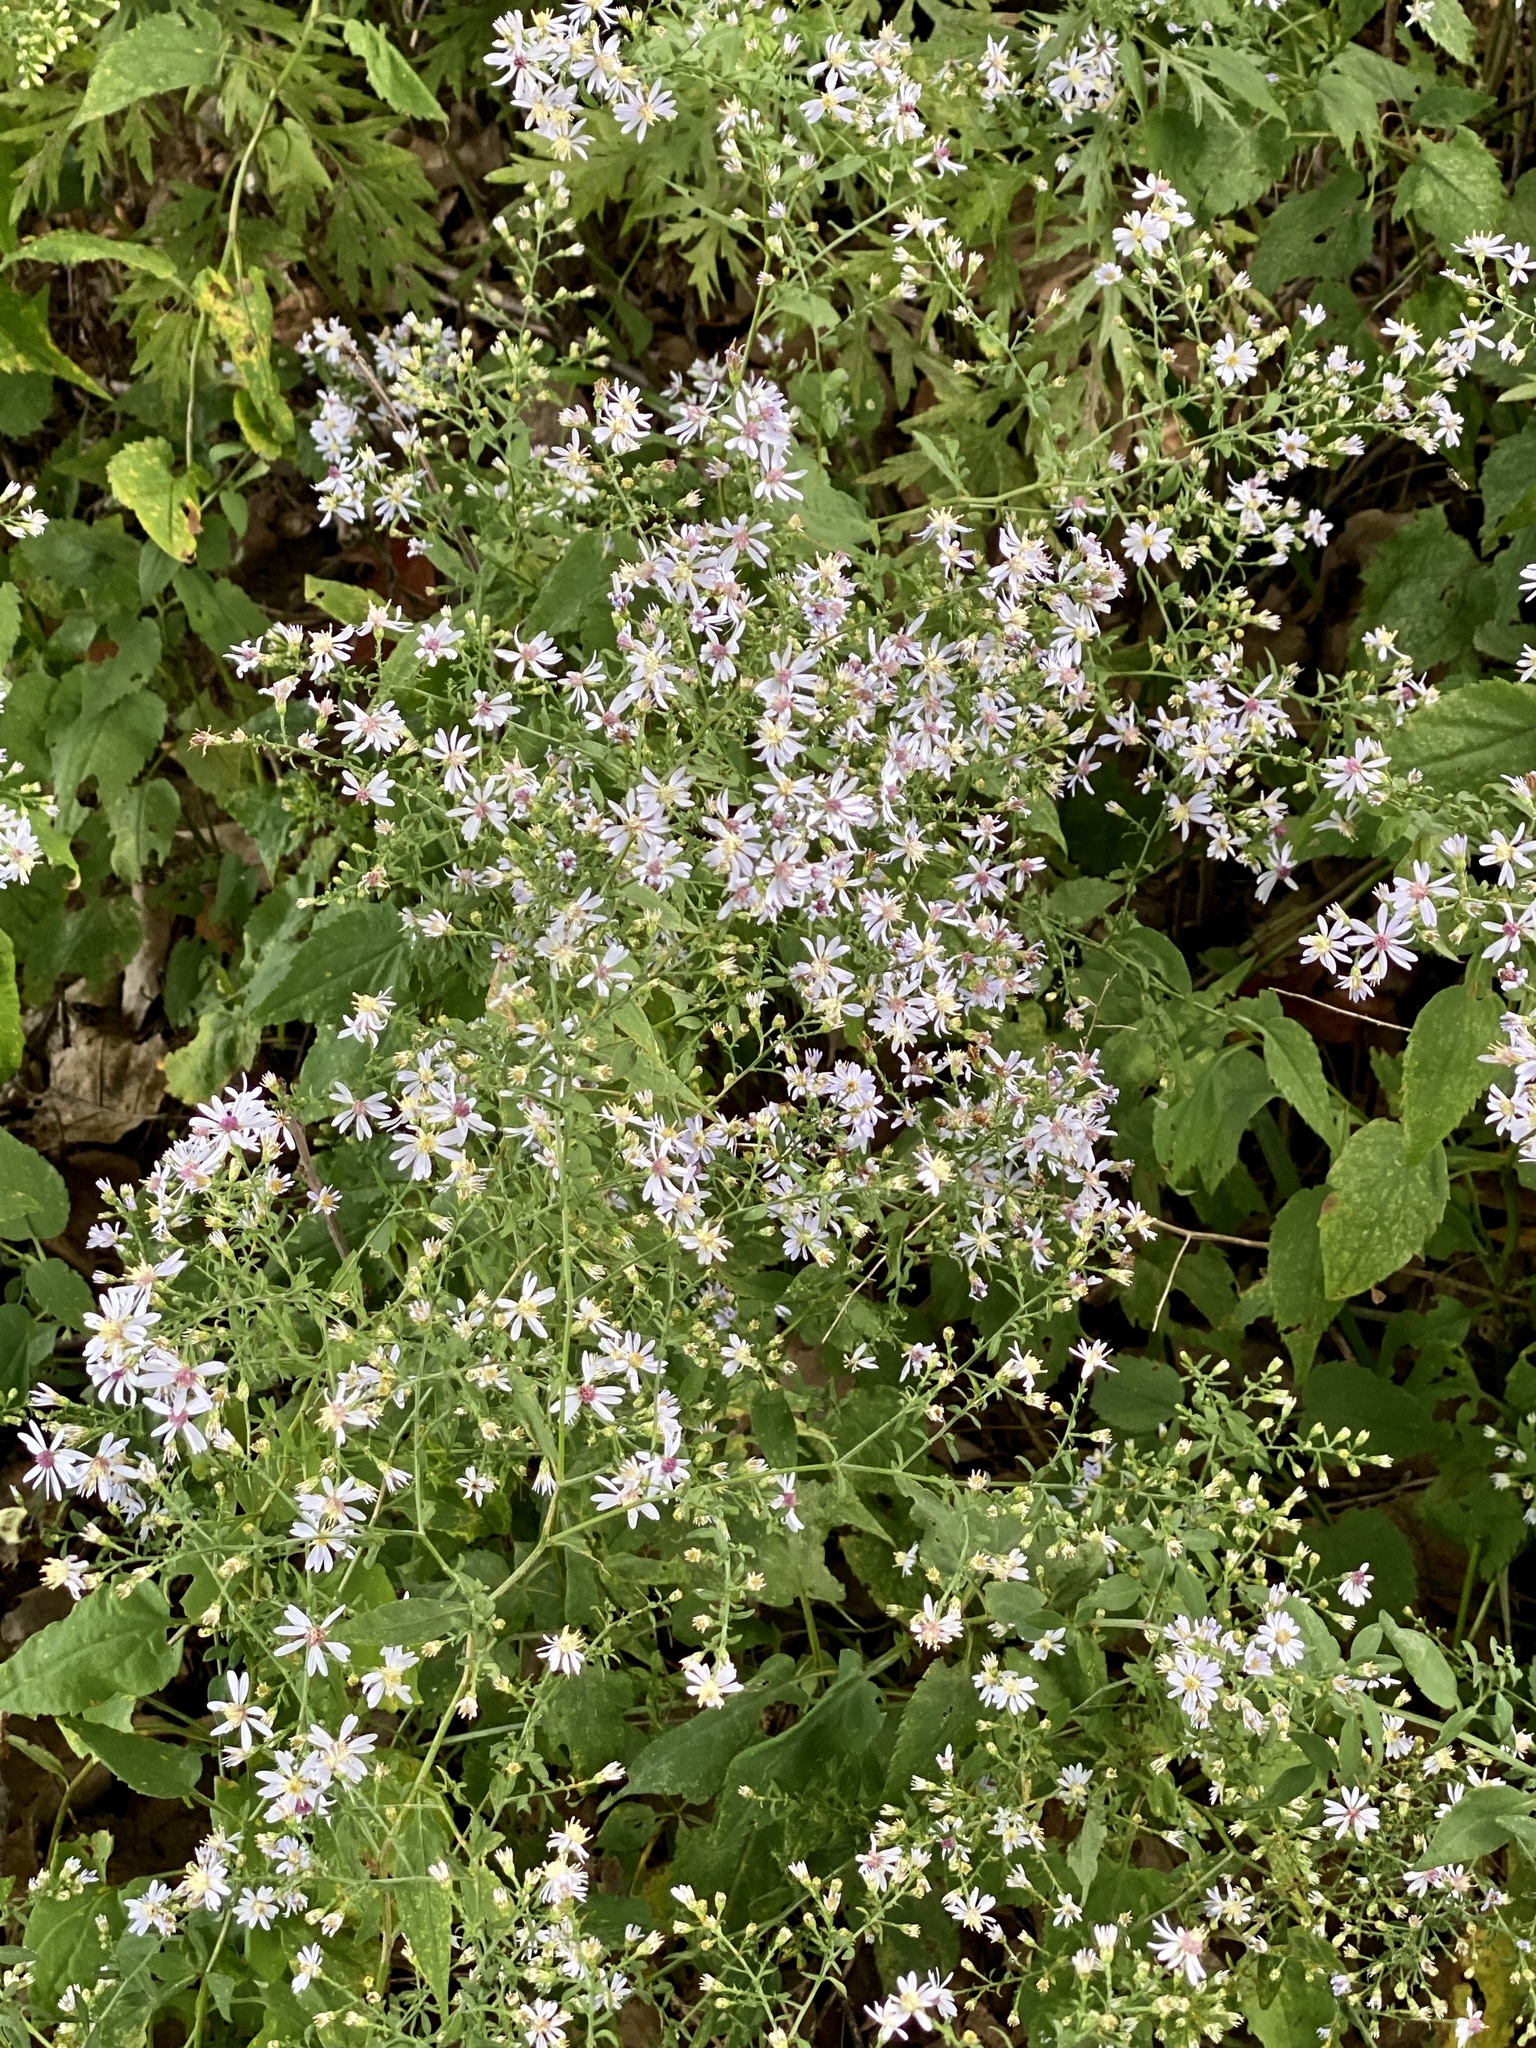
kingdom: Plantae
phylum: Tracheophyta
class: Magnoliopsida
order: Asterales
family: Asteraceae
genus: Symphyotrichum
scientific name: Symphyotrichum cordifolium
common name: Beeweed
